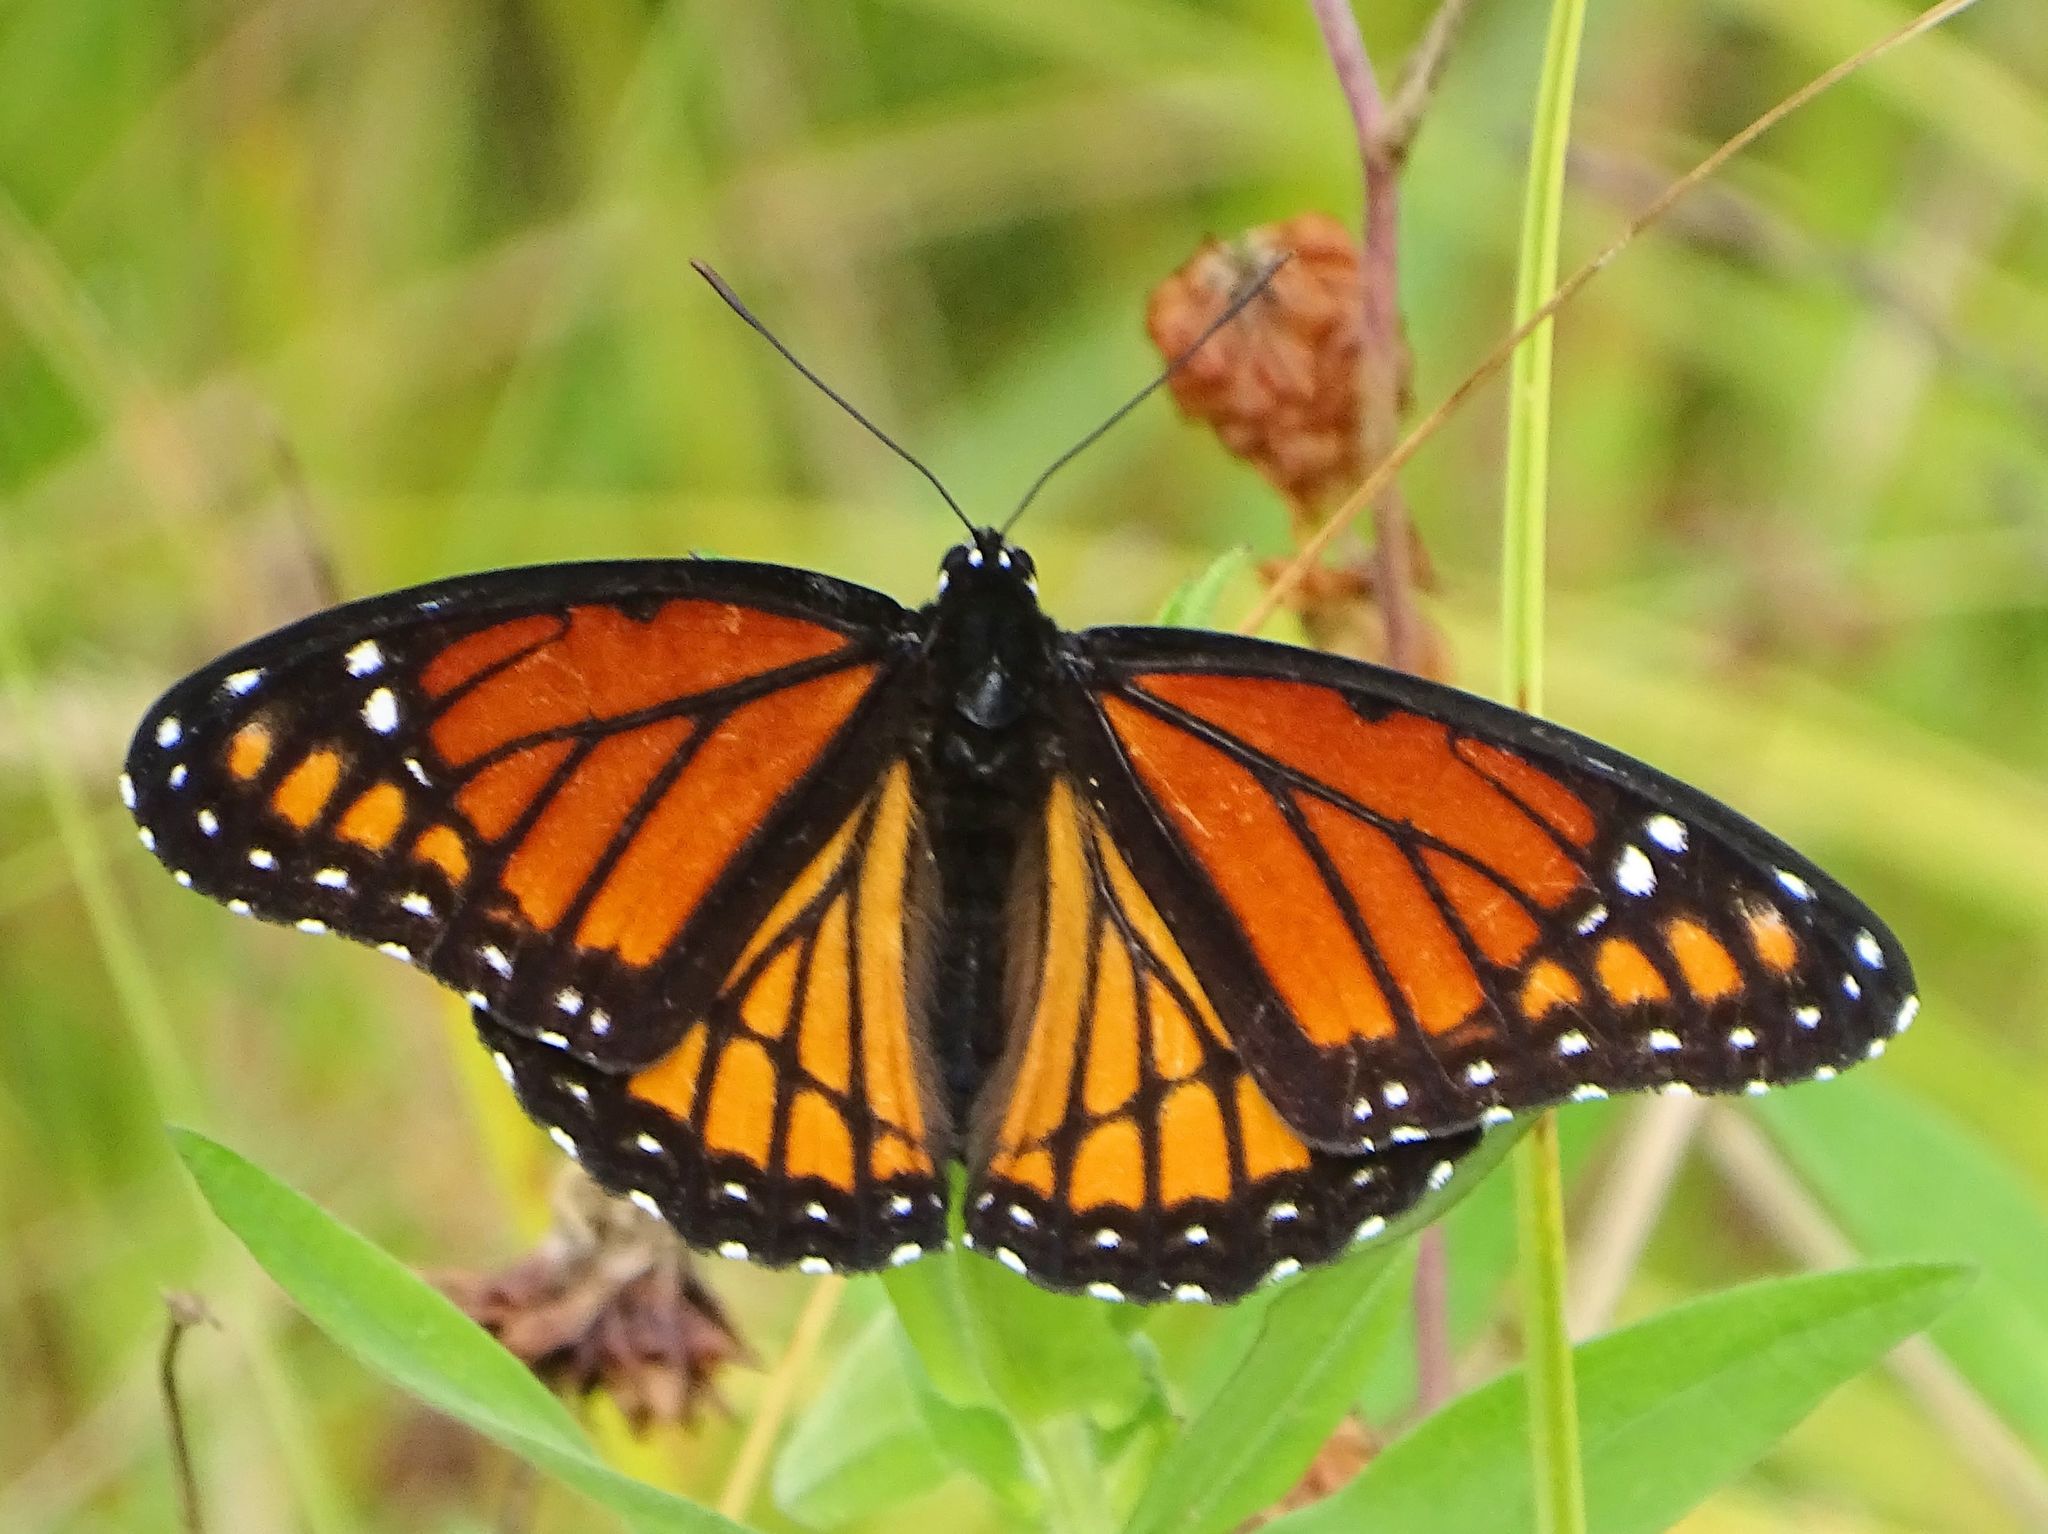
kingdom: Animalia
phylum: Arthropoda
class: Insecta
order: Lepidoptera
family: Nymphalidae
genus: Limenitis
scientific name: Limenitis archippus
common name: Viceroy
